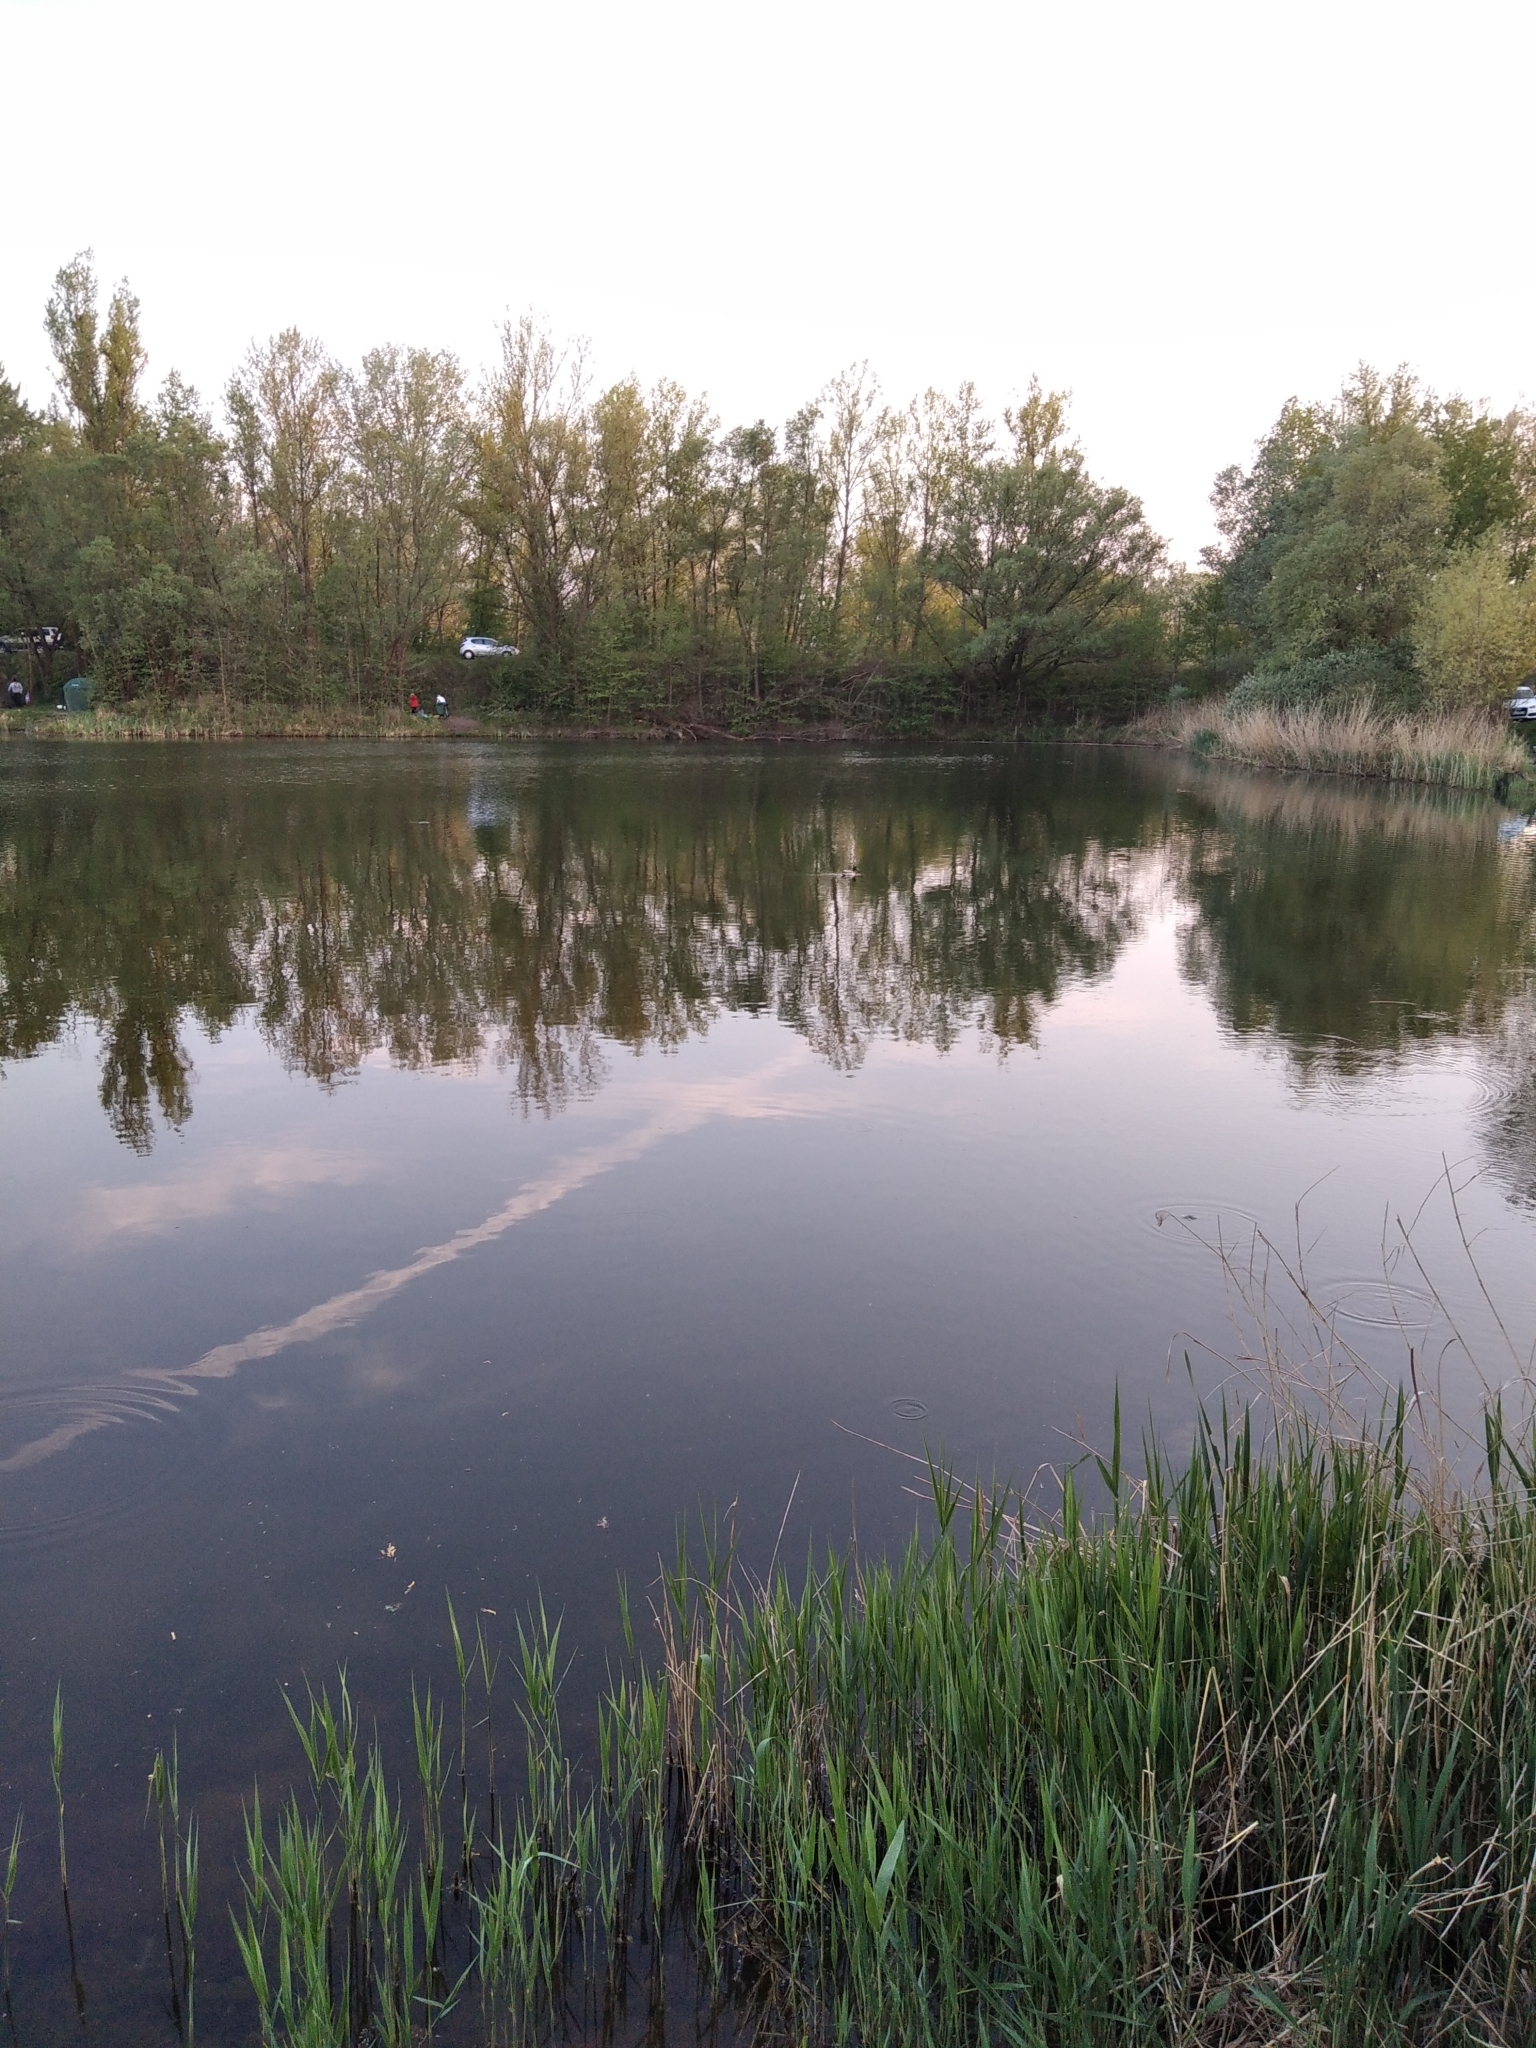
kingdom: Animalia
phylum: Chordata
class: Aves
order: Anseriformes
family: Anatidae
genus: Anas
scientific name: Anas platyrhynchos
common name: Mallard
